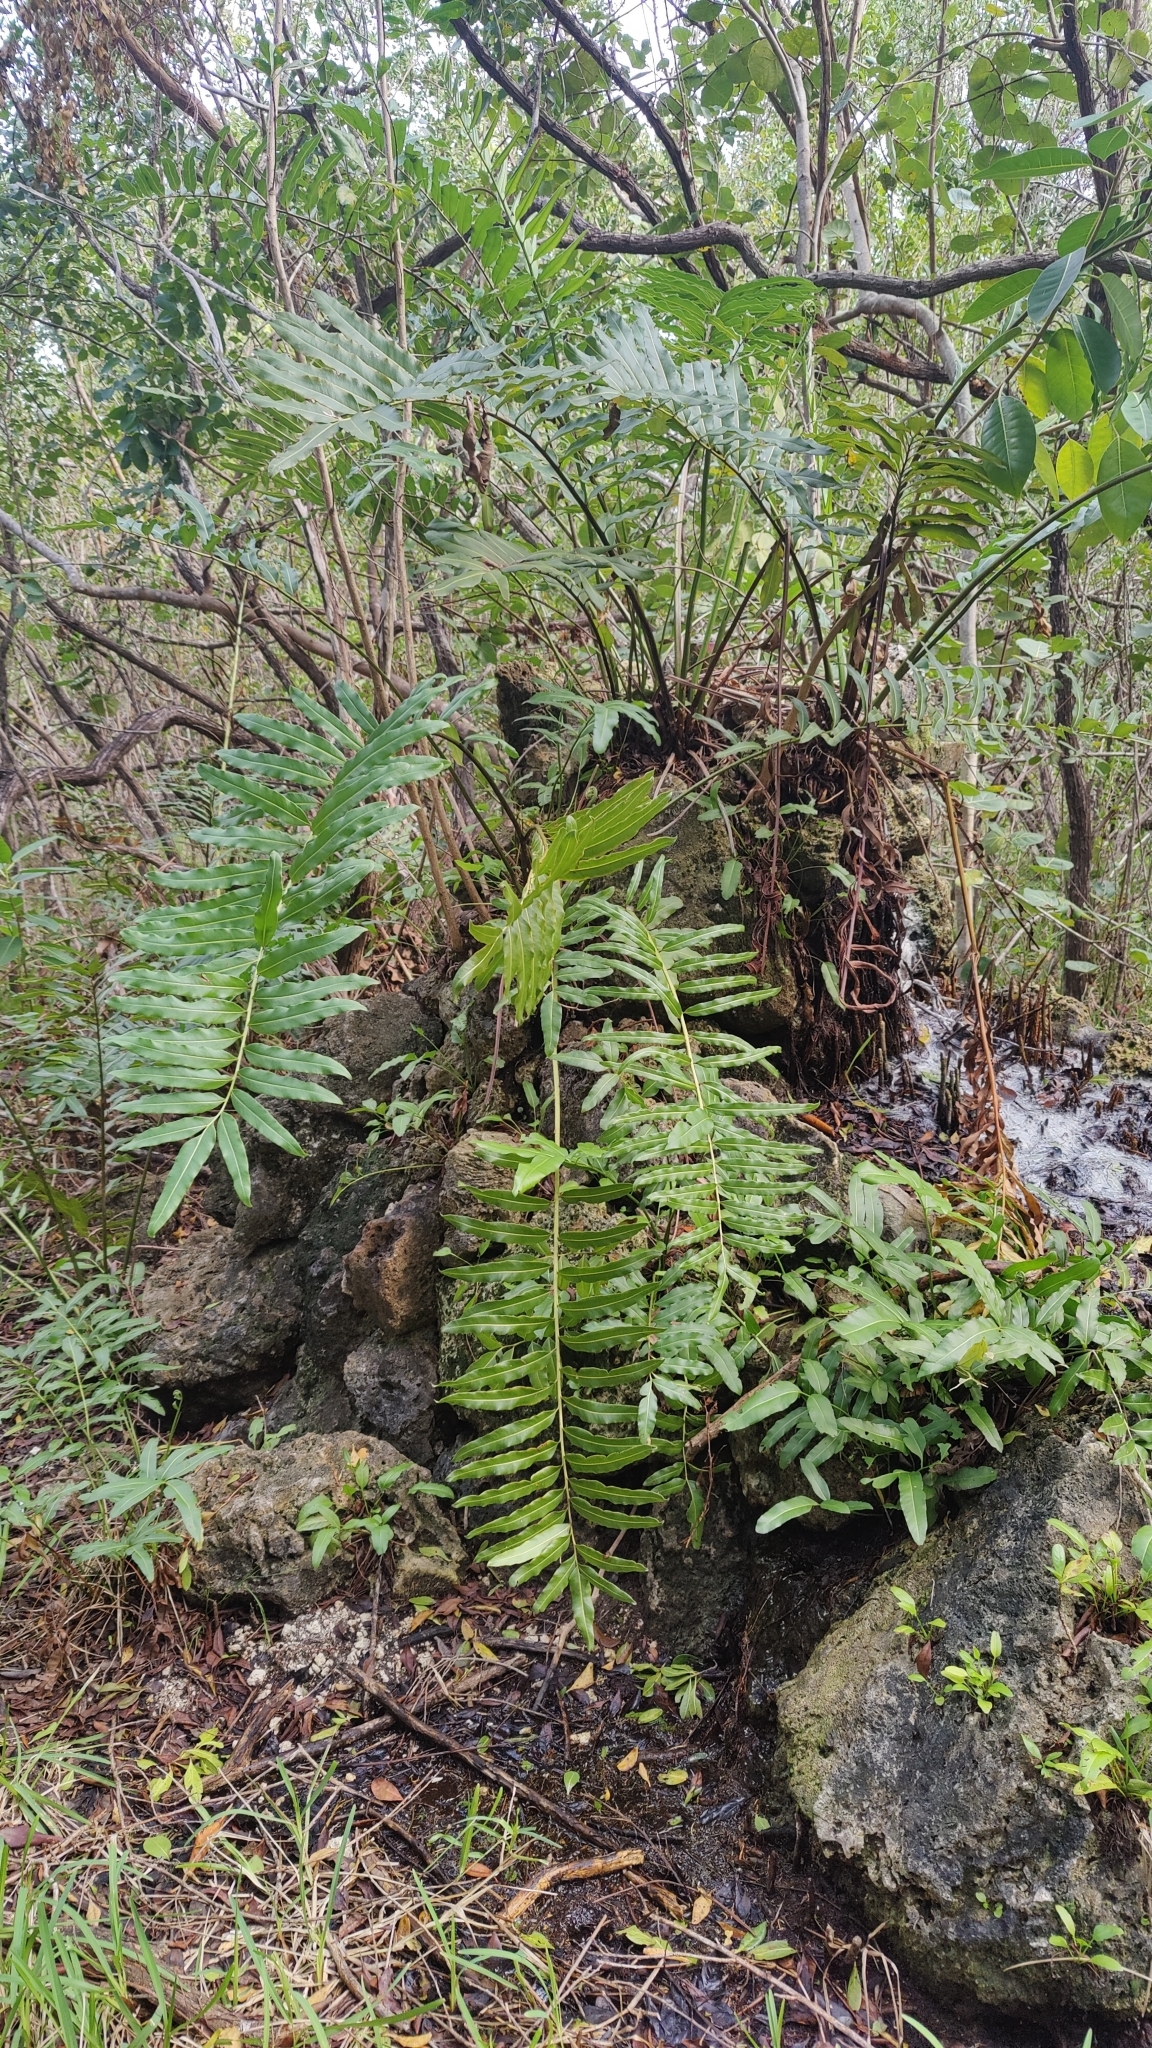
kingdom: Plantae
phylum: Tracheophyta
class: Polypodiopsida
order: Polypodiales
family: Pteridaceae
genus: Acrostichum
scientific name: Acrostichum danaeifolium
